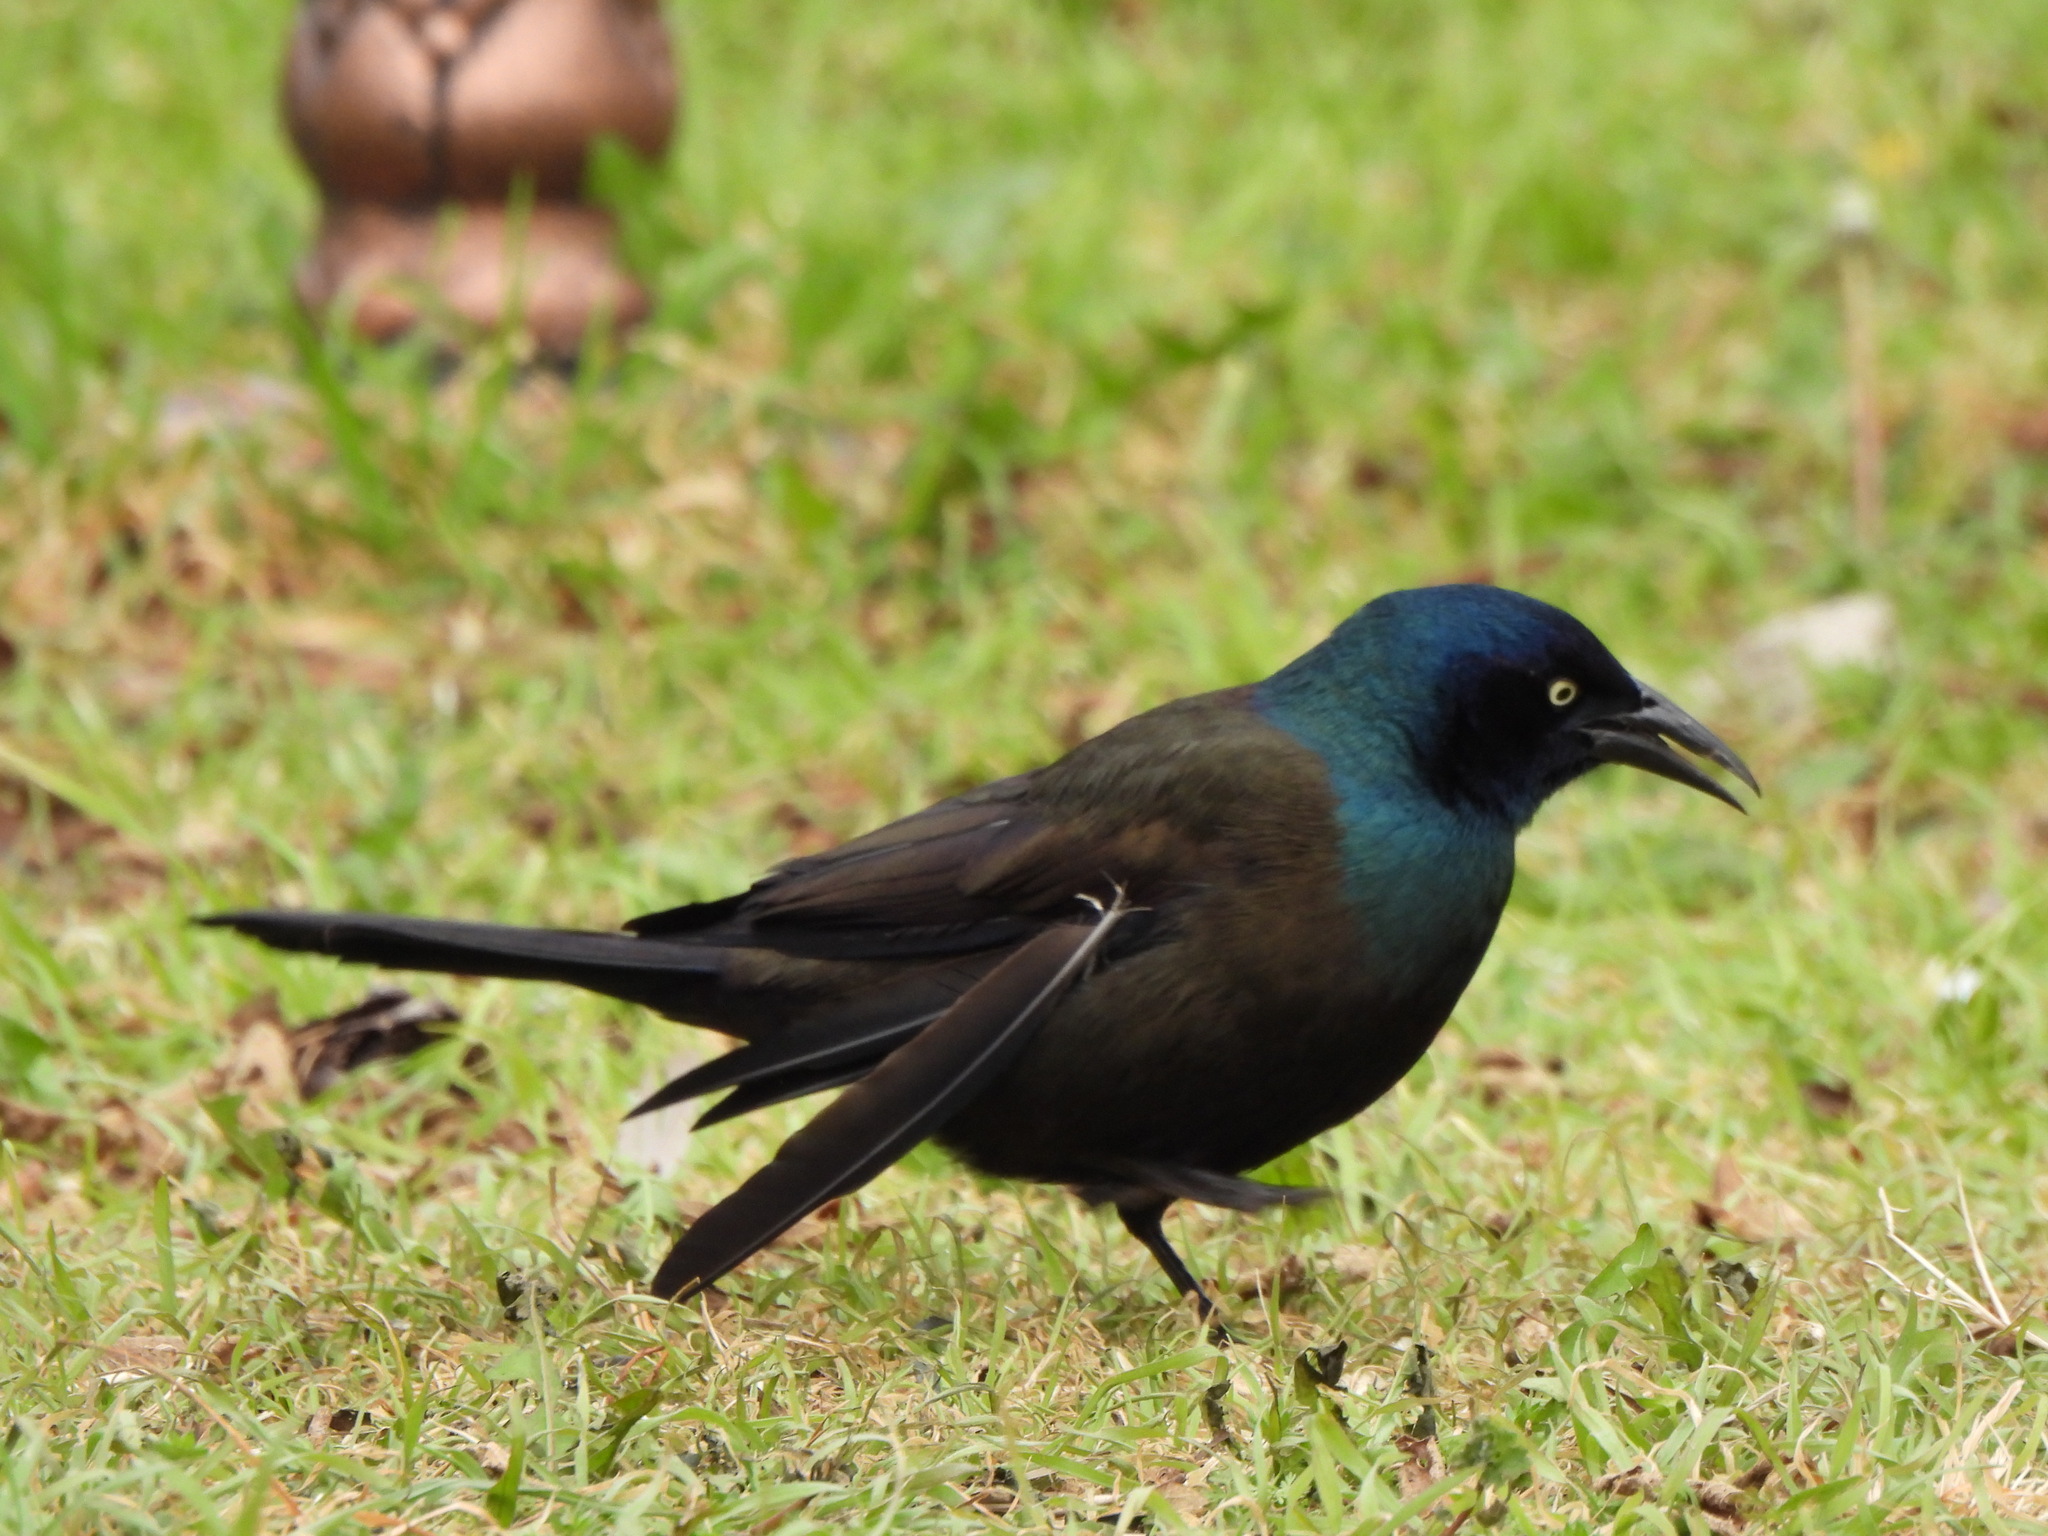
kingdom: Animalia
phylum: Chordata
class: Aves
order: Passeriformes
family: Icteridae
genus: Quiscalus
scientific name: Quiscalus quiscula
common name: Common grackle
